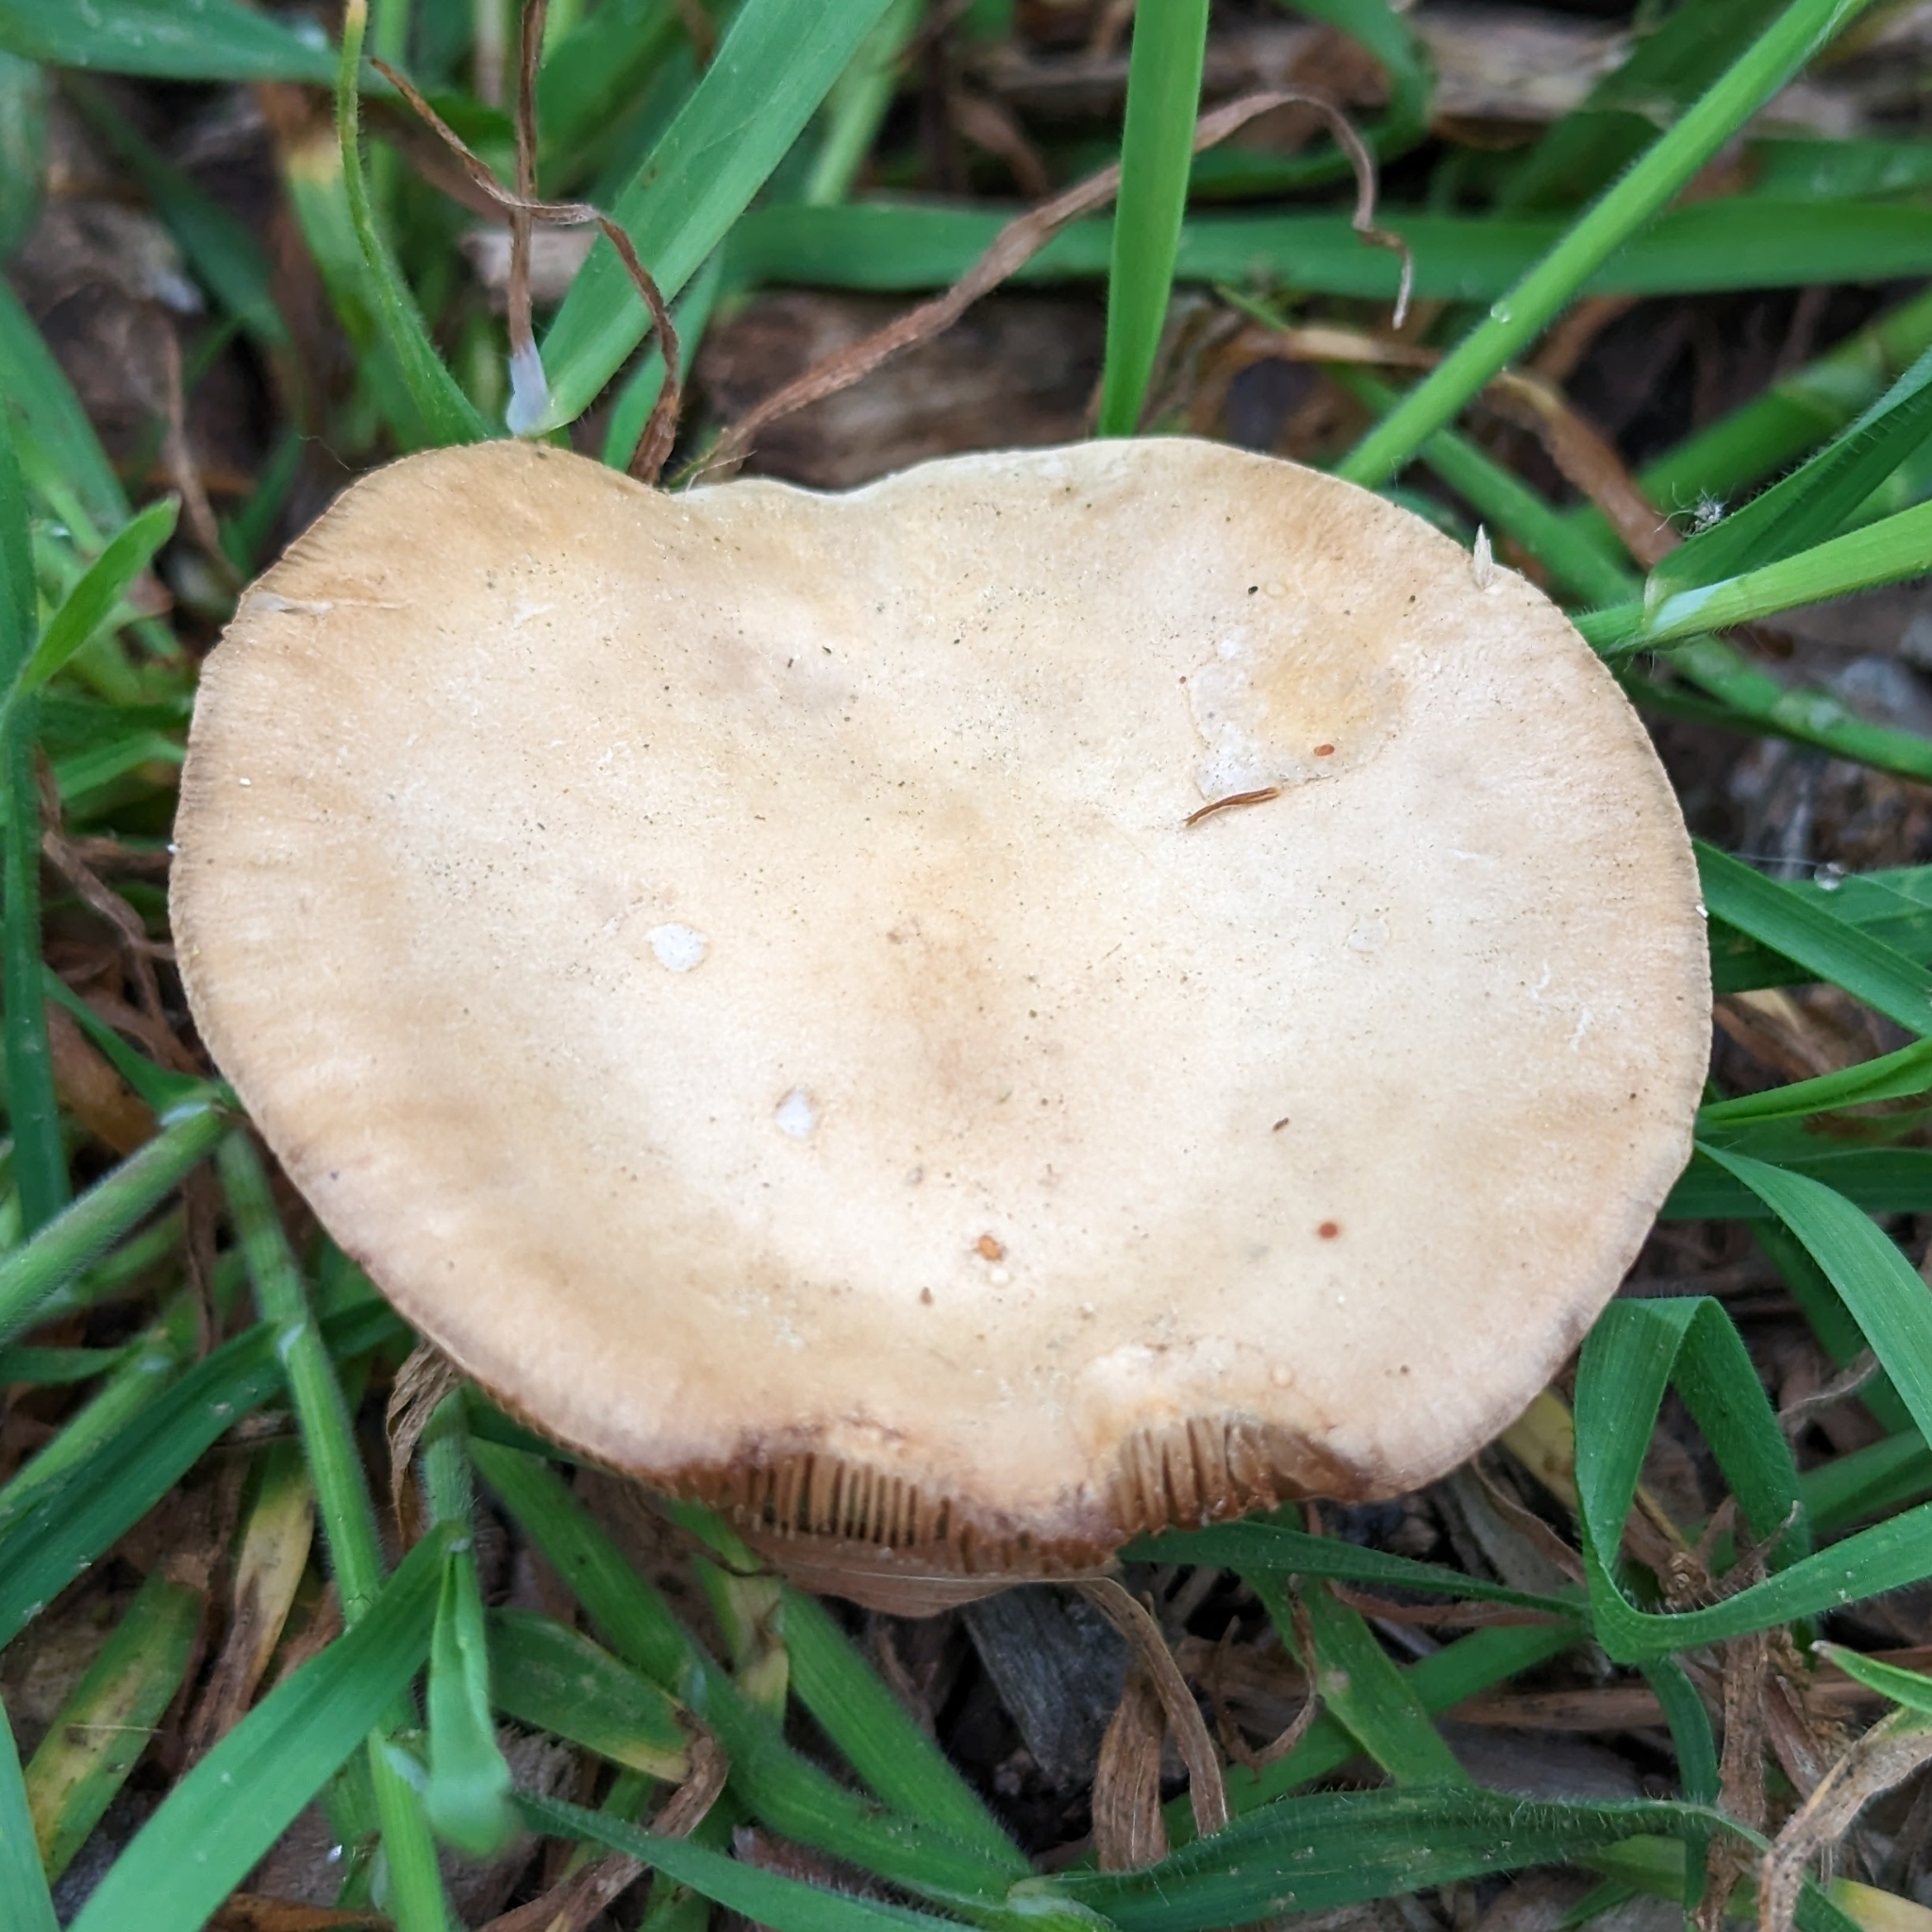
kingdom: Fungi
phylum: Basidiomycota
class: Agaricomycetes
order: Agaricales
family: Strophariaceae
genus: Agrocybe
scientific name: Agrocybe putaminum
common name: Mulch fieldcap
